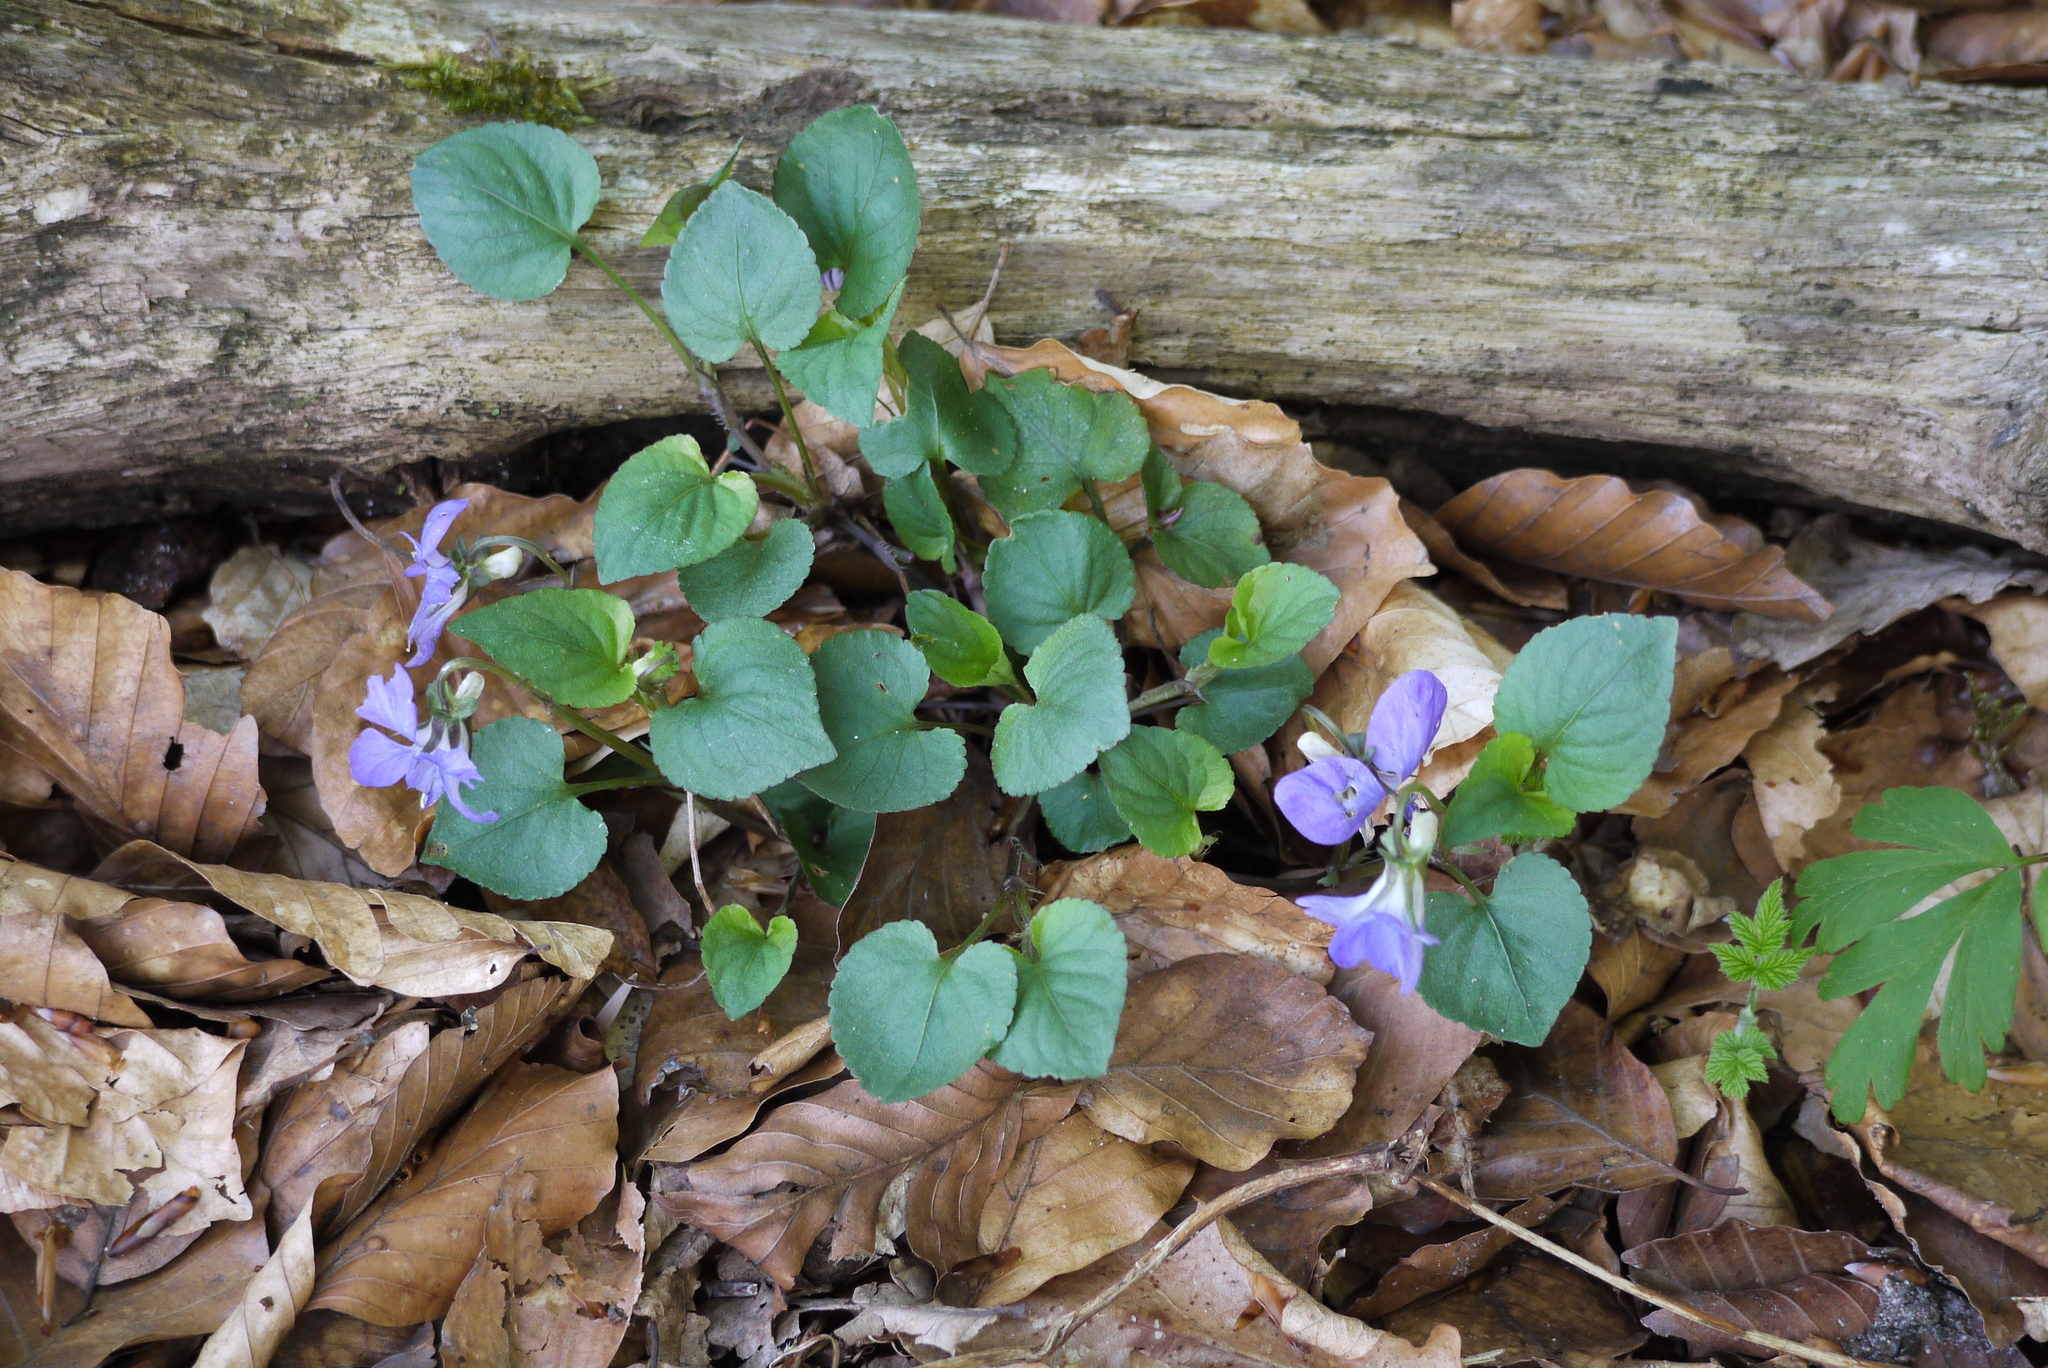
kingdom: Plantae
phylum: Tracheophyta
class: Magnoliopsida
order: Malpighiales
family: Violaceae
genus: Viola
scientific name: Viola riviniana
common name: Common dog-violet
